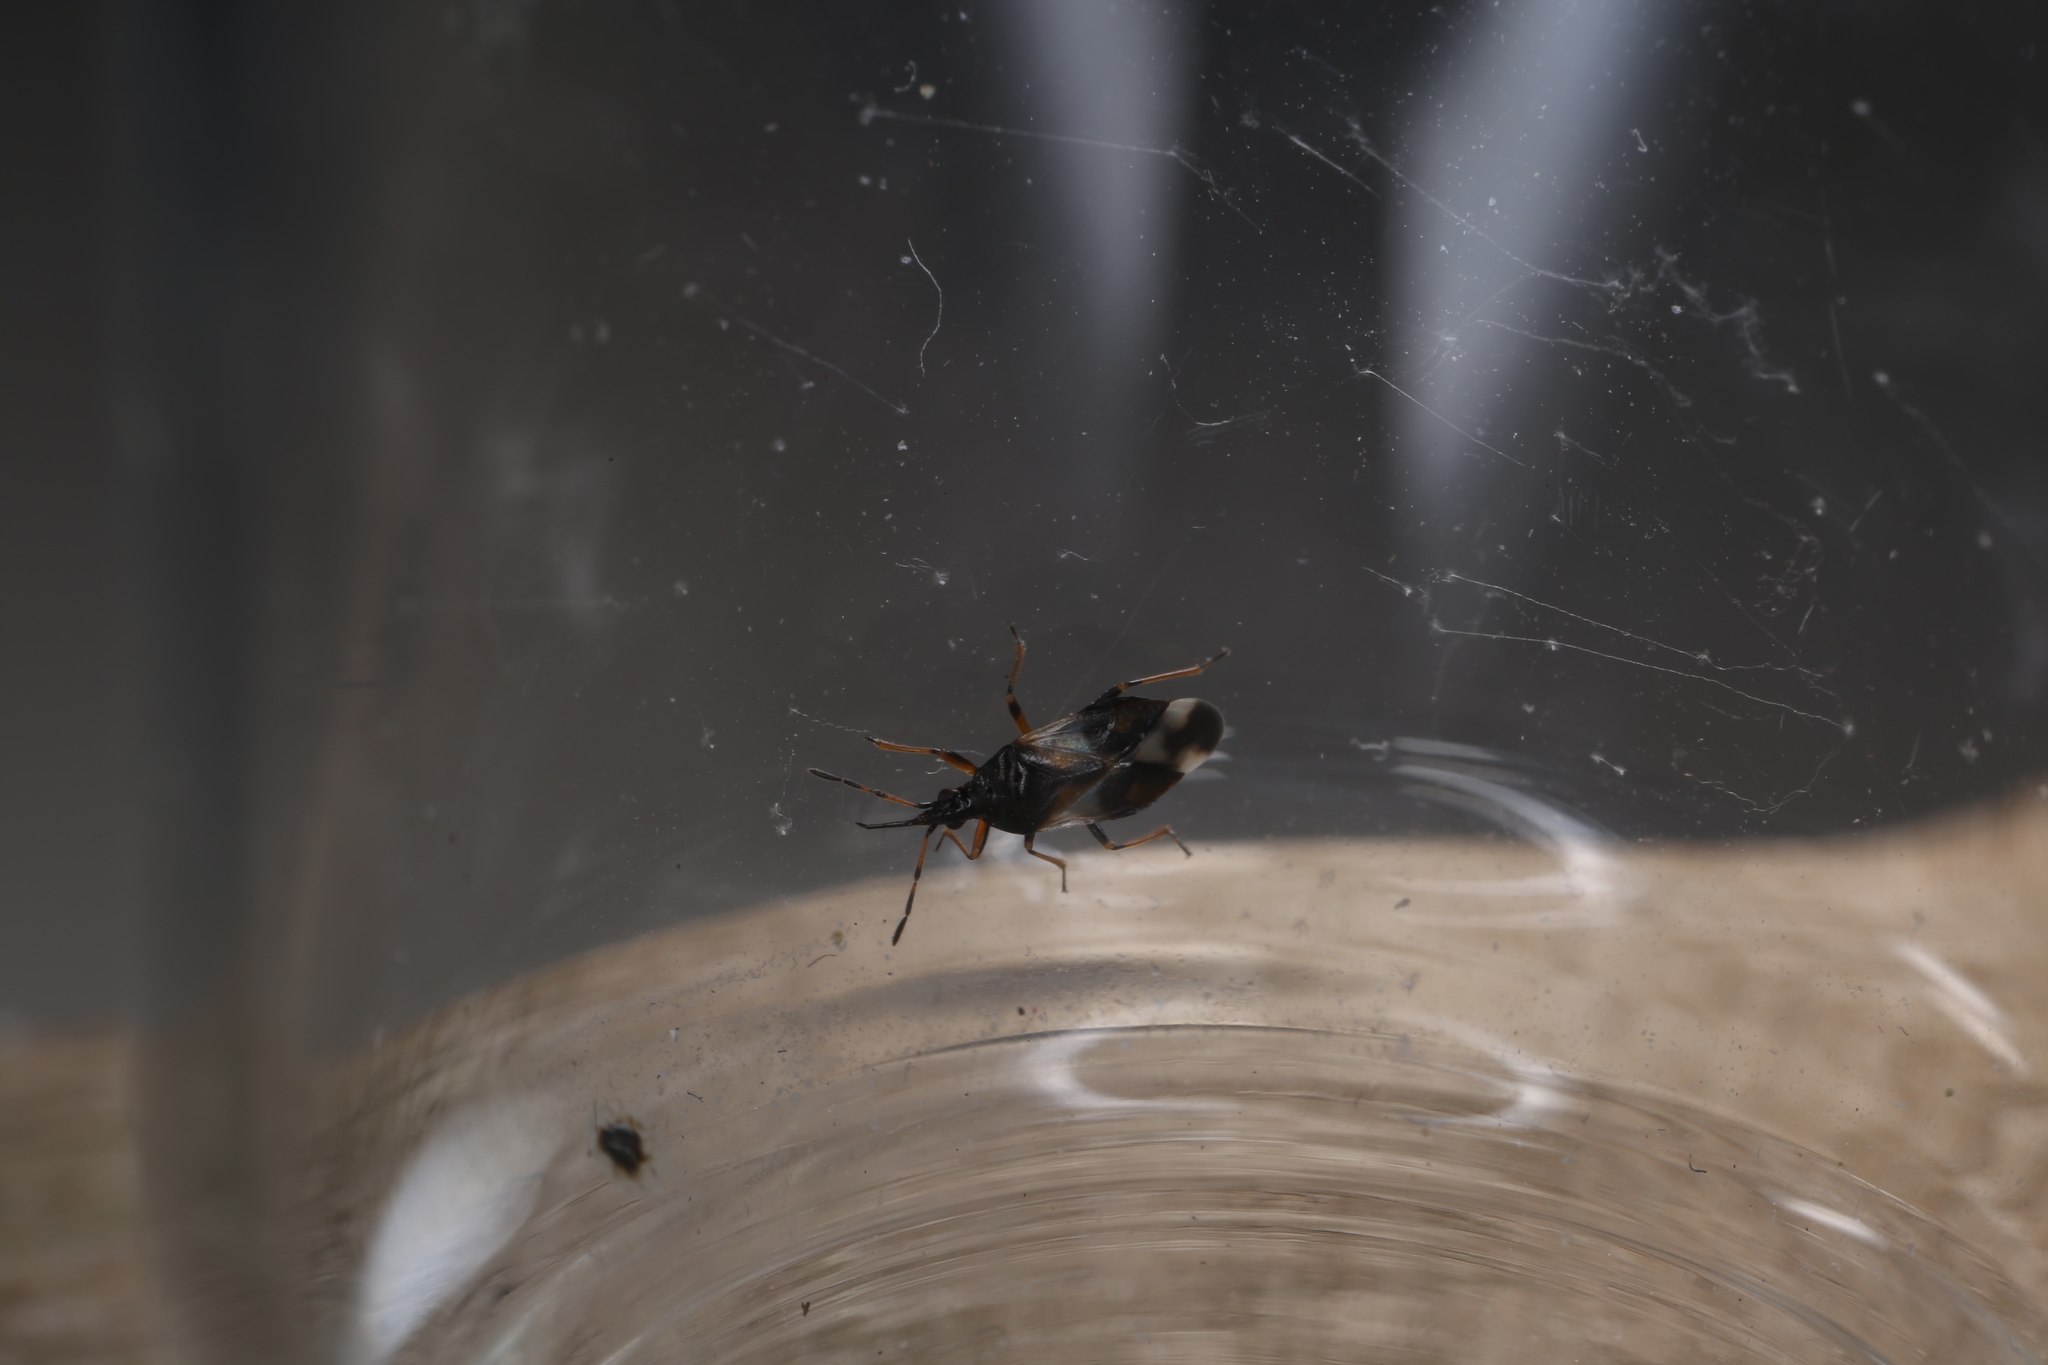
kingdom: Animalia
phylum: Arthropoda
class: Insecta
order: Hemiptera
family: Anthocoridae
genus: Anthocoris
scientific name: Anthocoris nemorum
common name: Minute pirate bug
